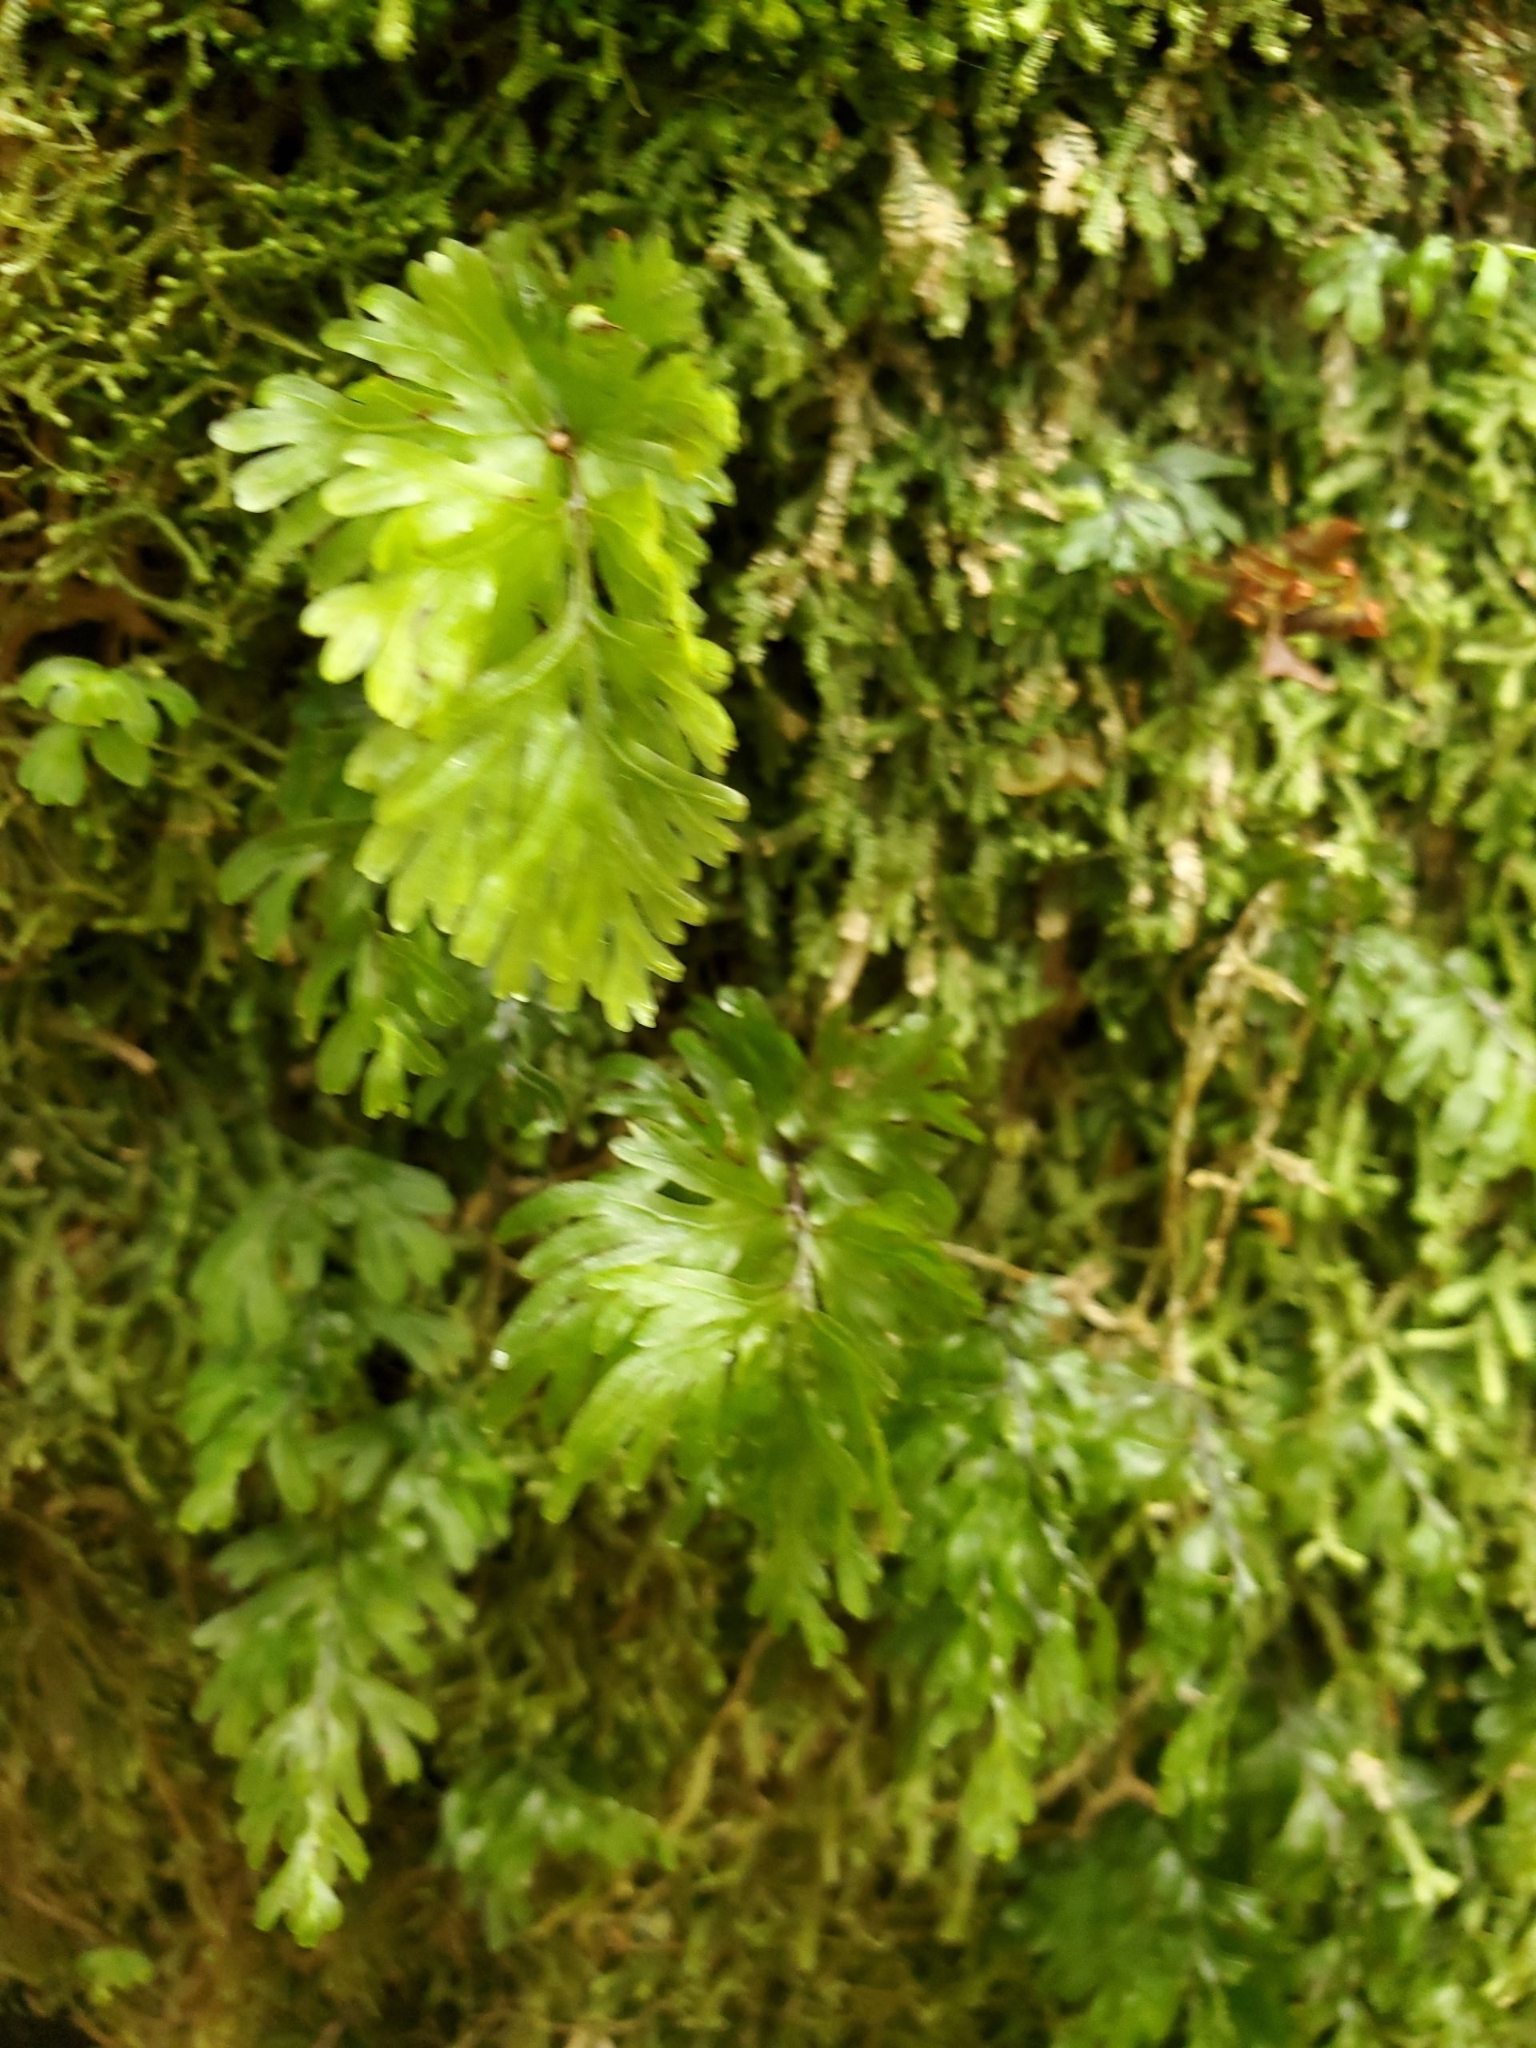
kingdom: Plantae
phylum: Tracheophyta
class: Polypodiopsida
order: Hymenophyllales
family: Hymenophyllaceae
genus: Hymenophyllum
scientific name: Hymenophyllum flabellatum
